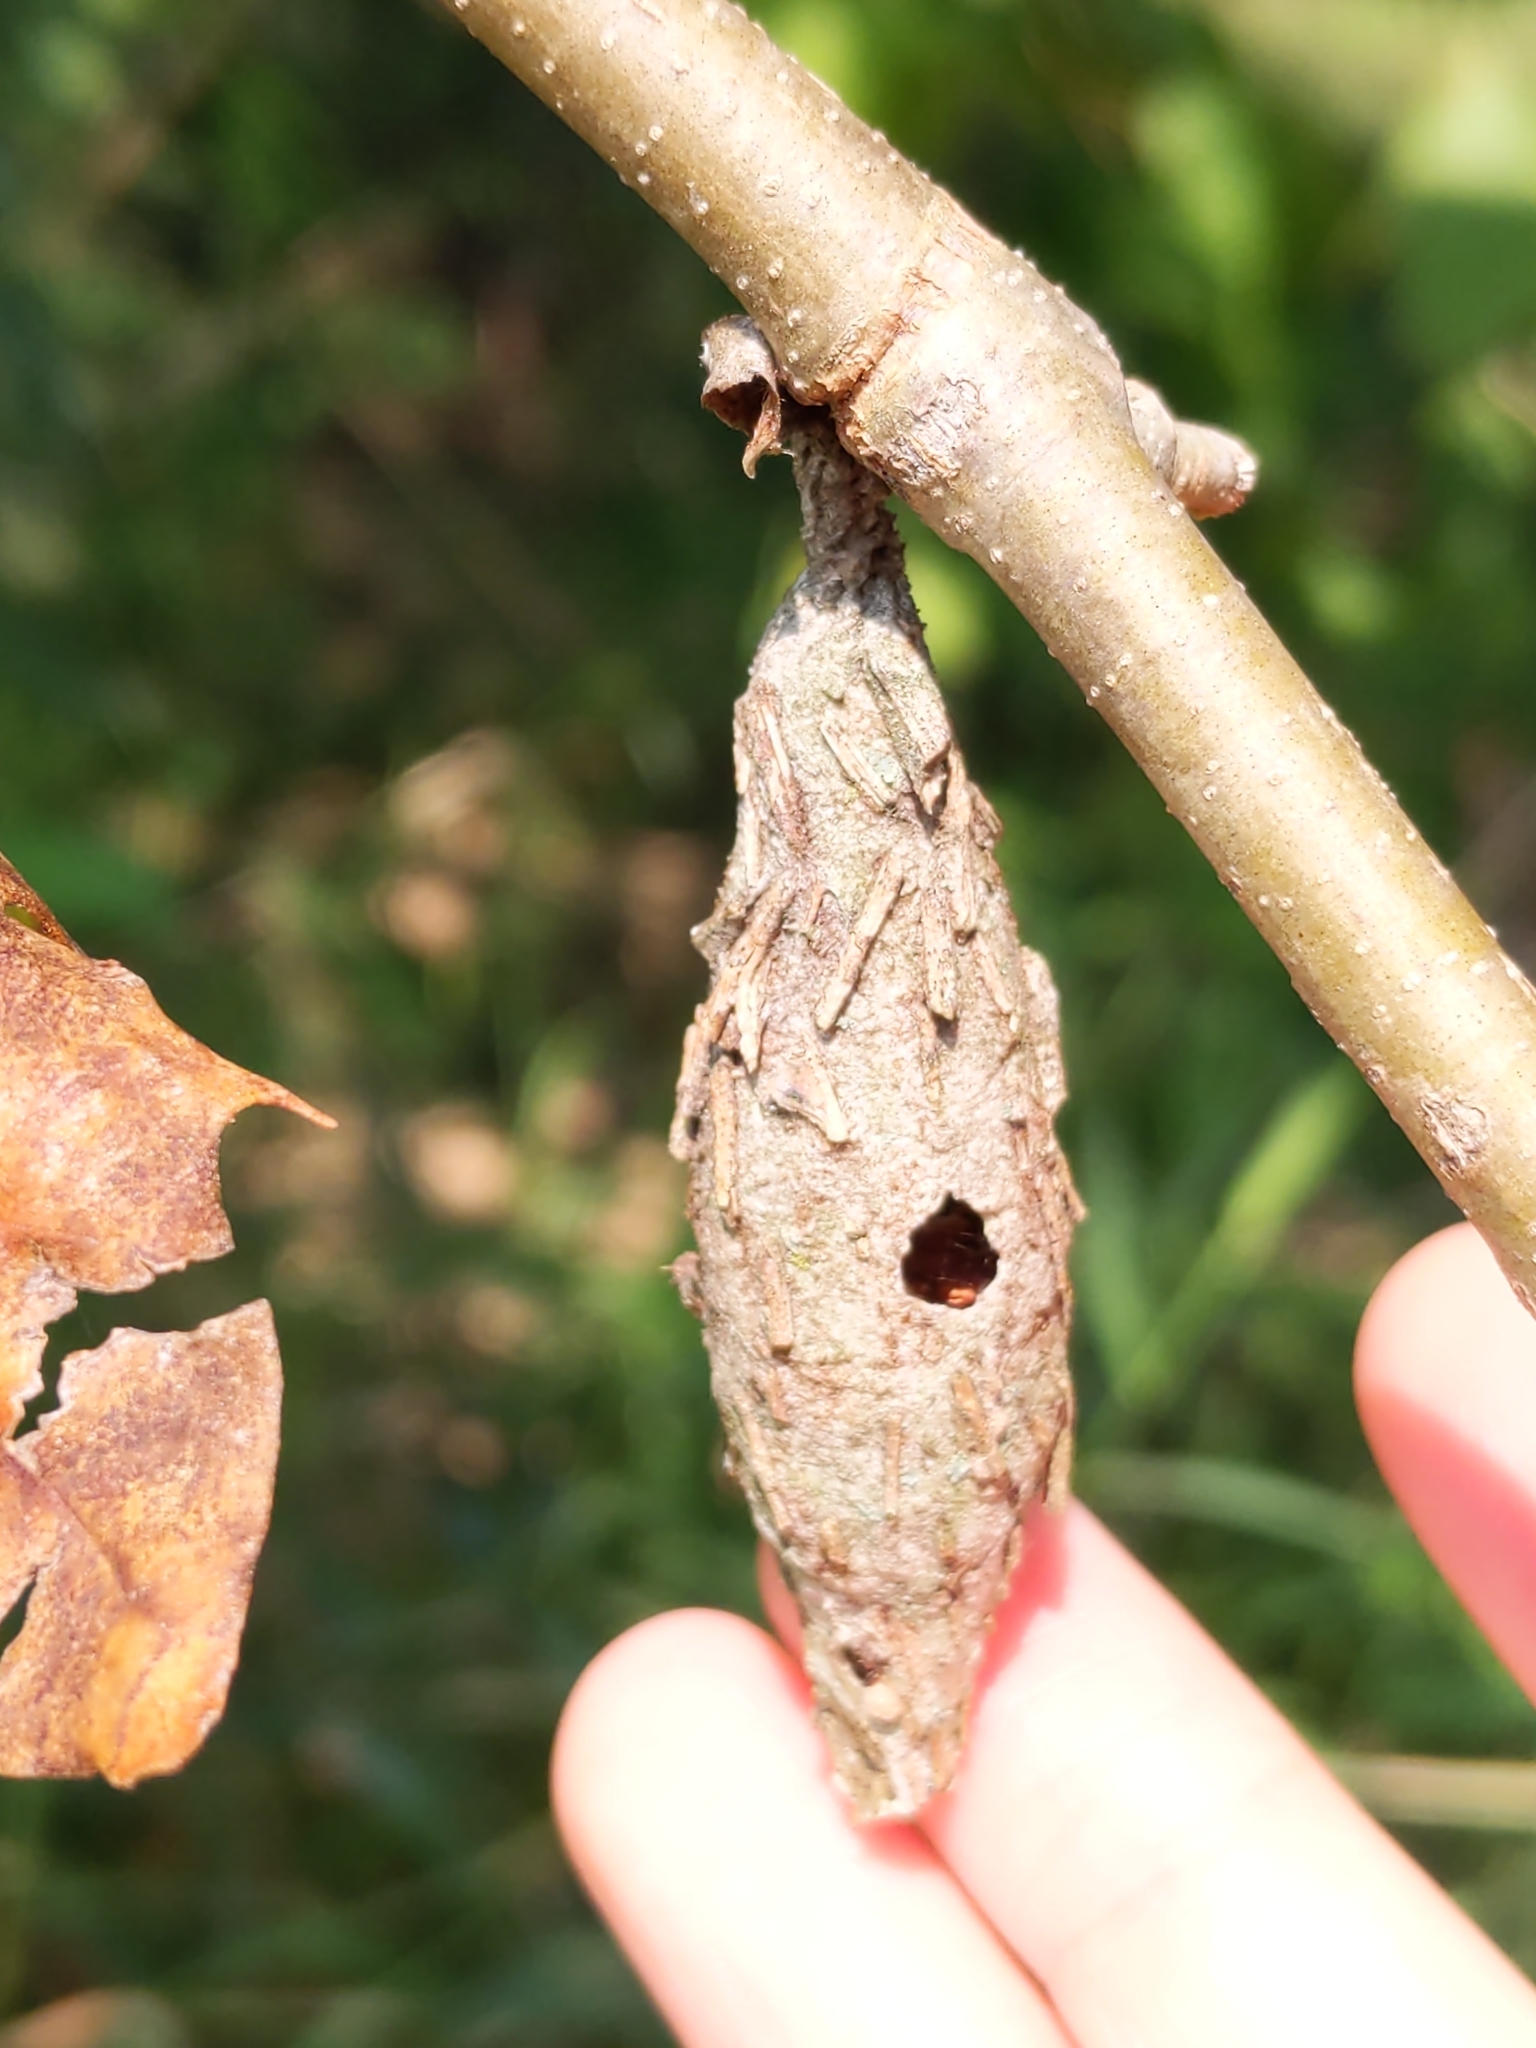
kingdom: Animalia
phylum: Arthropoda
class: Insecta
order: Lepidoptera
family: Psychidae
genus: Thyridopteryx
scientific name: Thyridopteryx ephemeraeformis
